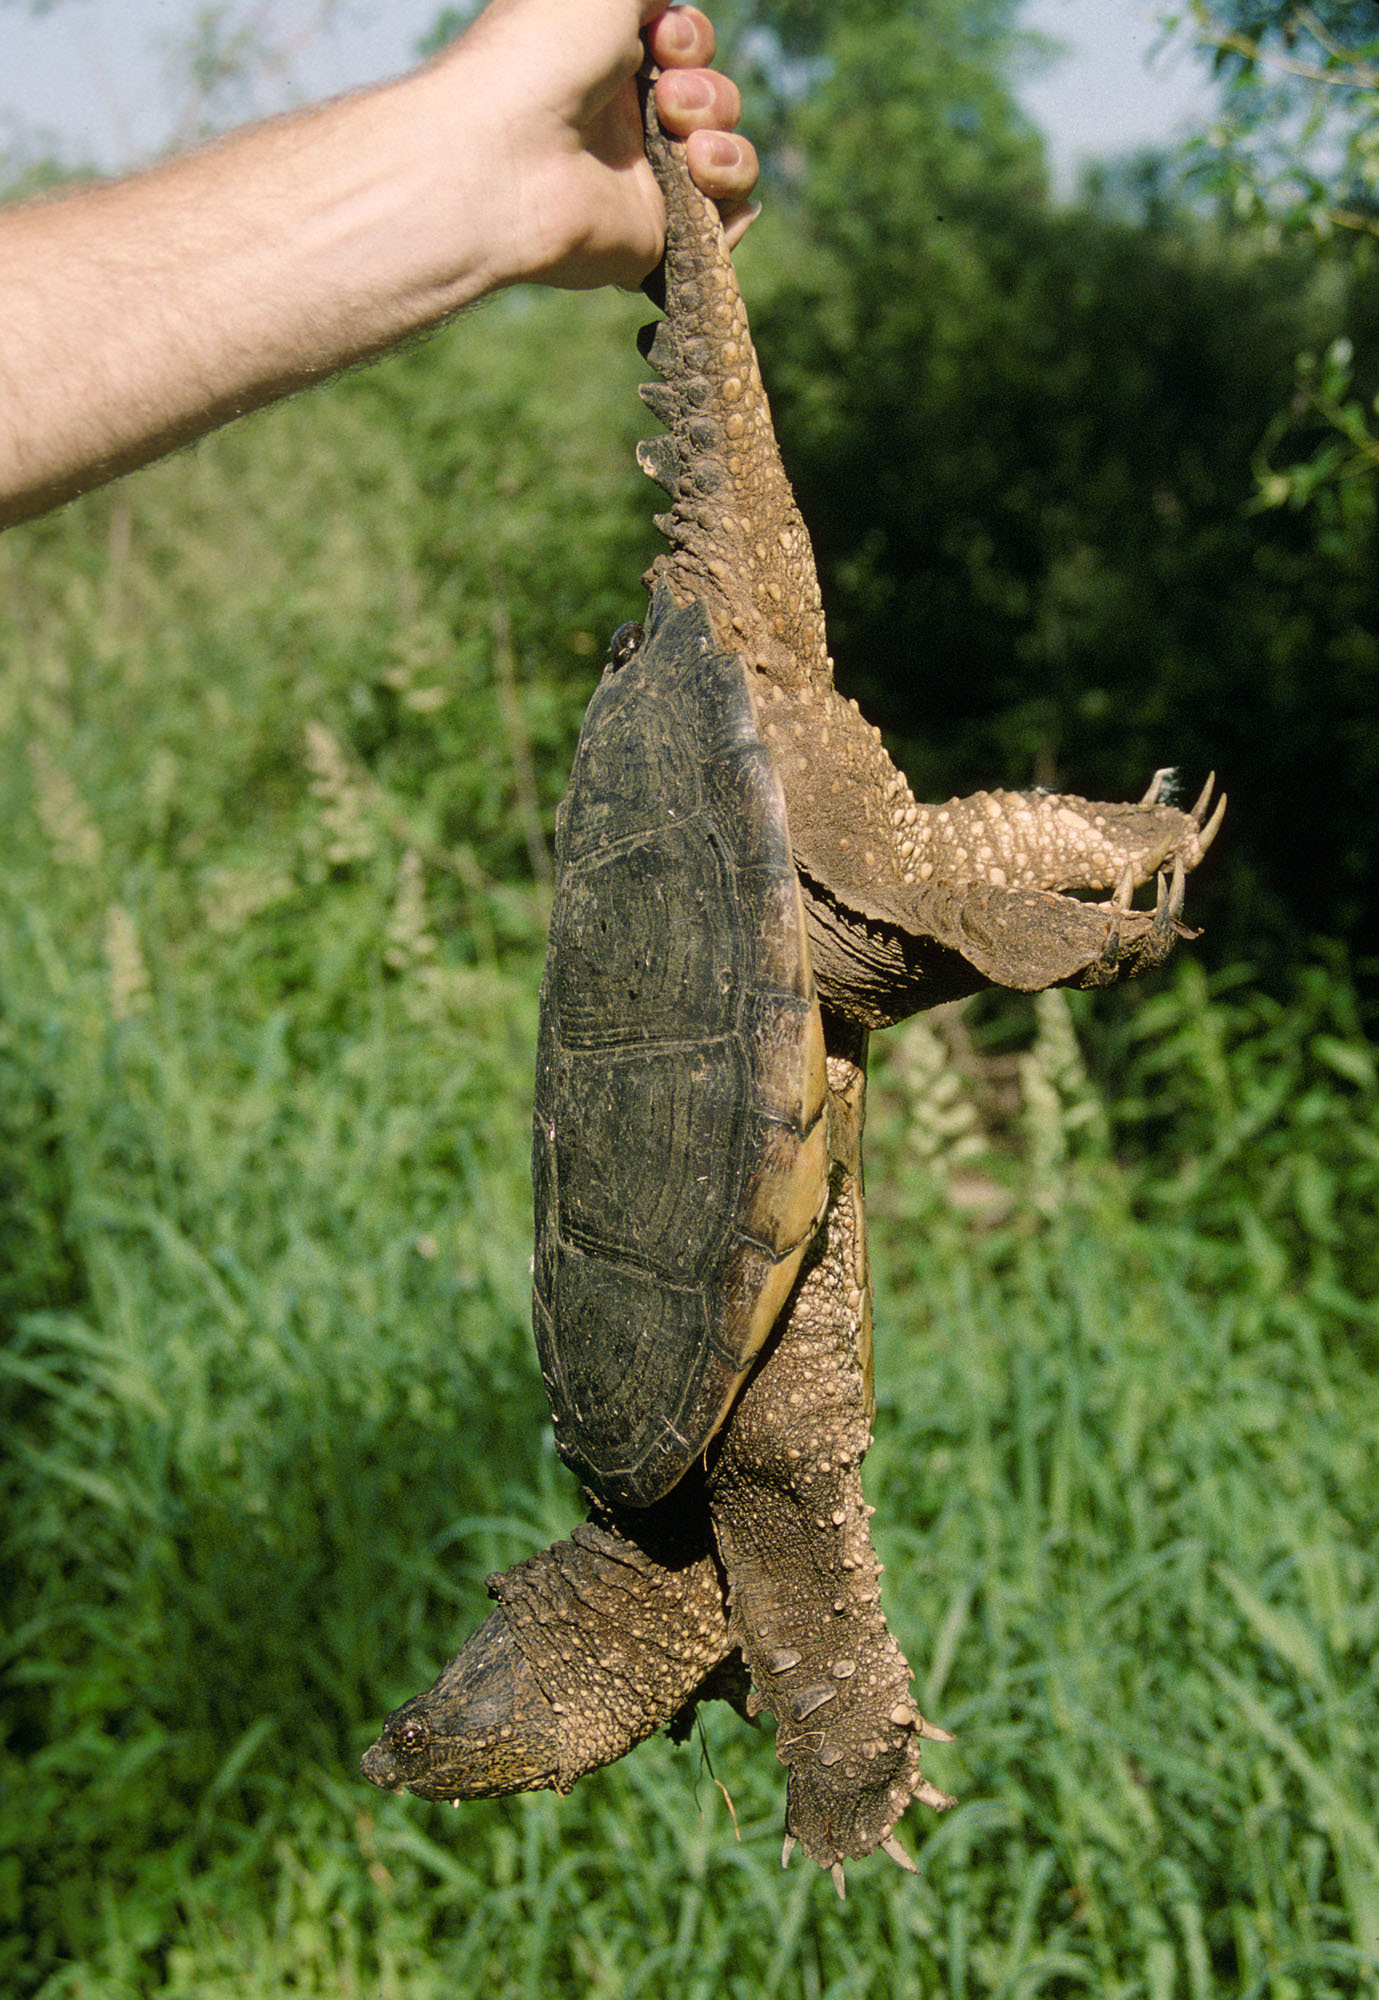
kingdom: Animalia
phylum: Chordata
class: Testudines
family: Chelydridae
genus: Chelydra
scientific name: Chelydra serpentina
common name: Common snapping turtle
